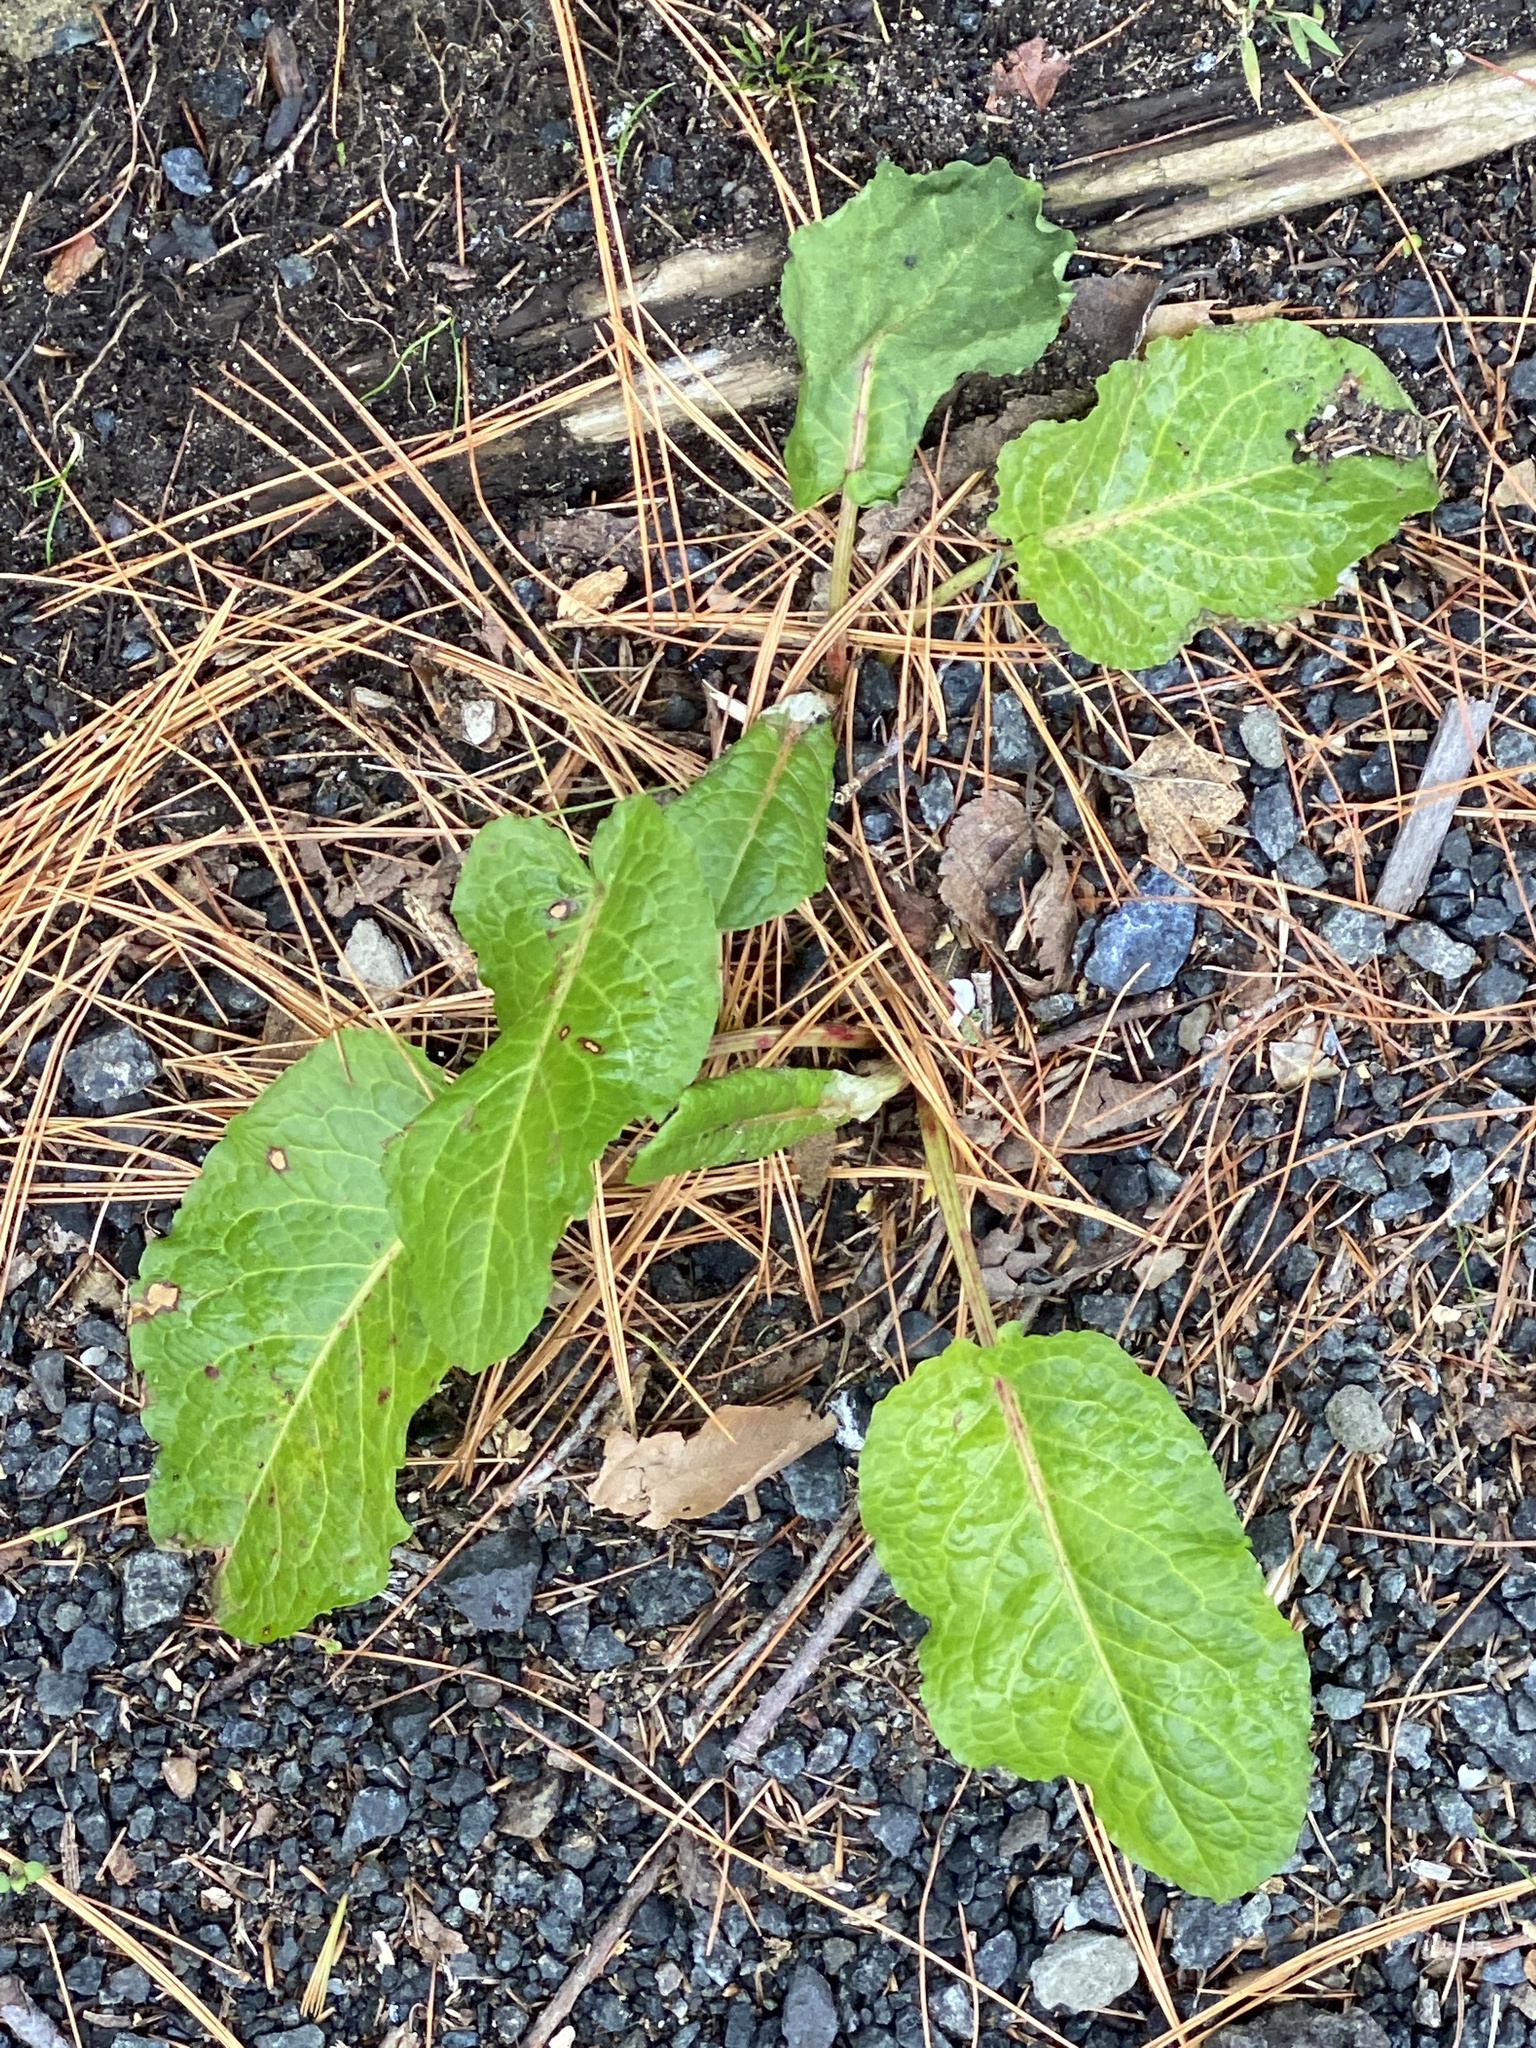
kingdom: Plantae
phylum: Tracheophyta
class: Magnoliopsida
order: Caryophyllales
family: Polygonaceae
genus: Rumex
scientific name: Rumex obtusifolius
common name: Bitter dock
